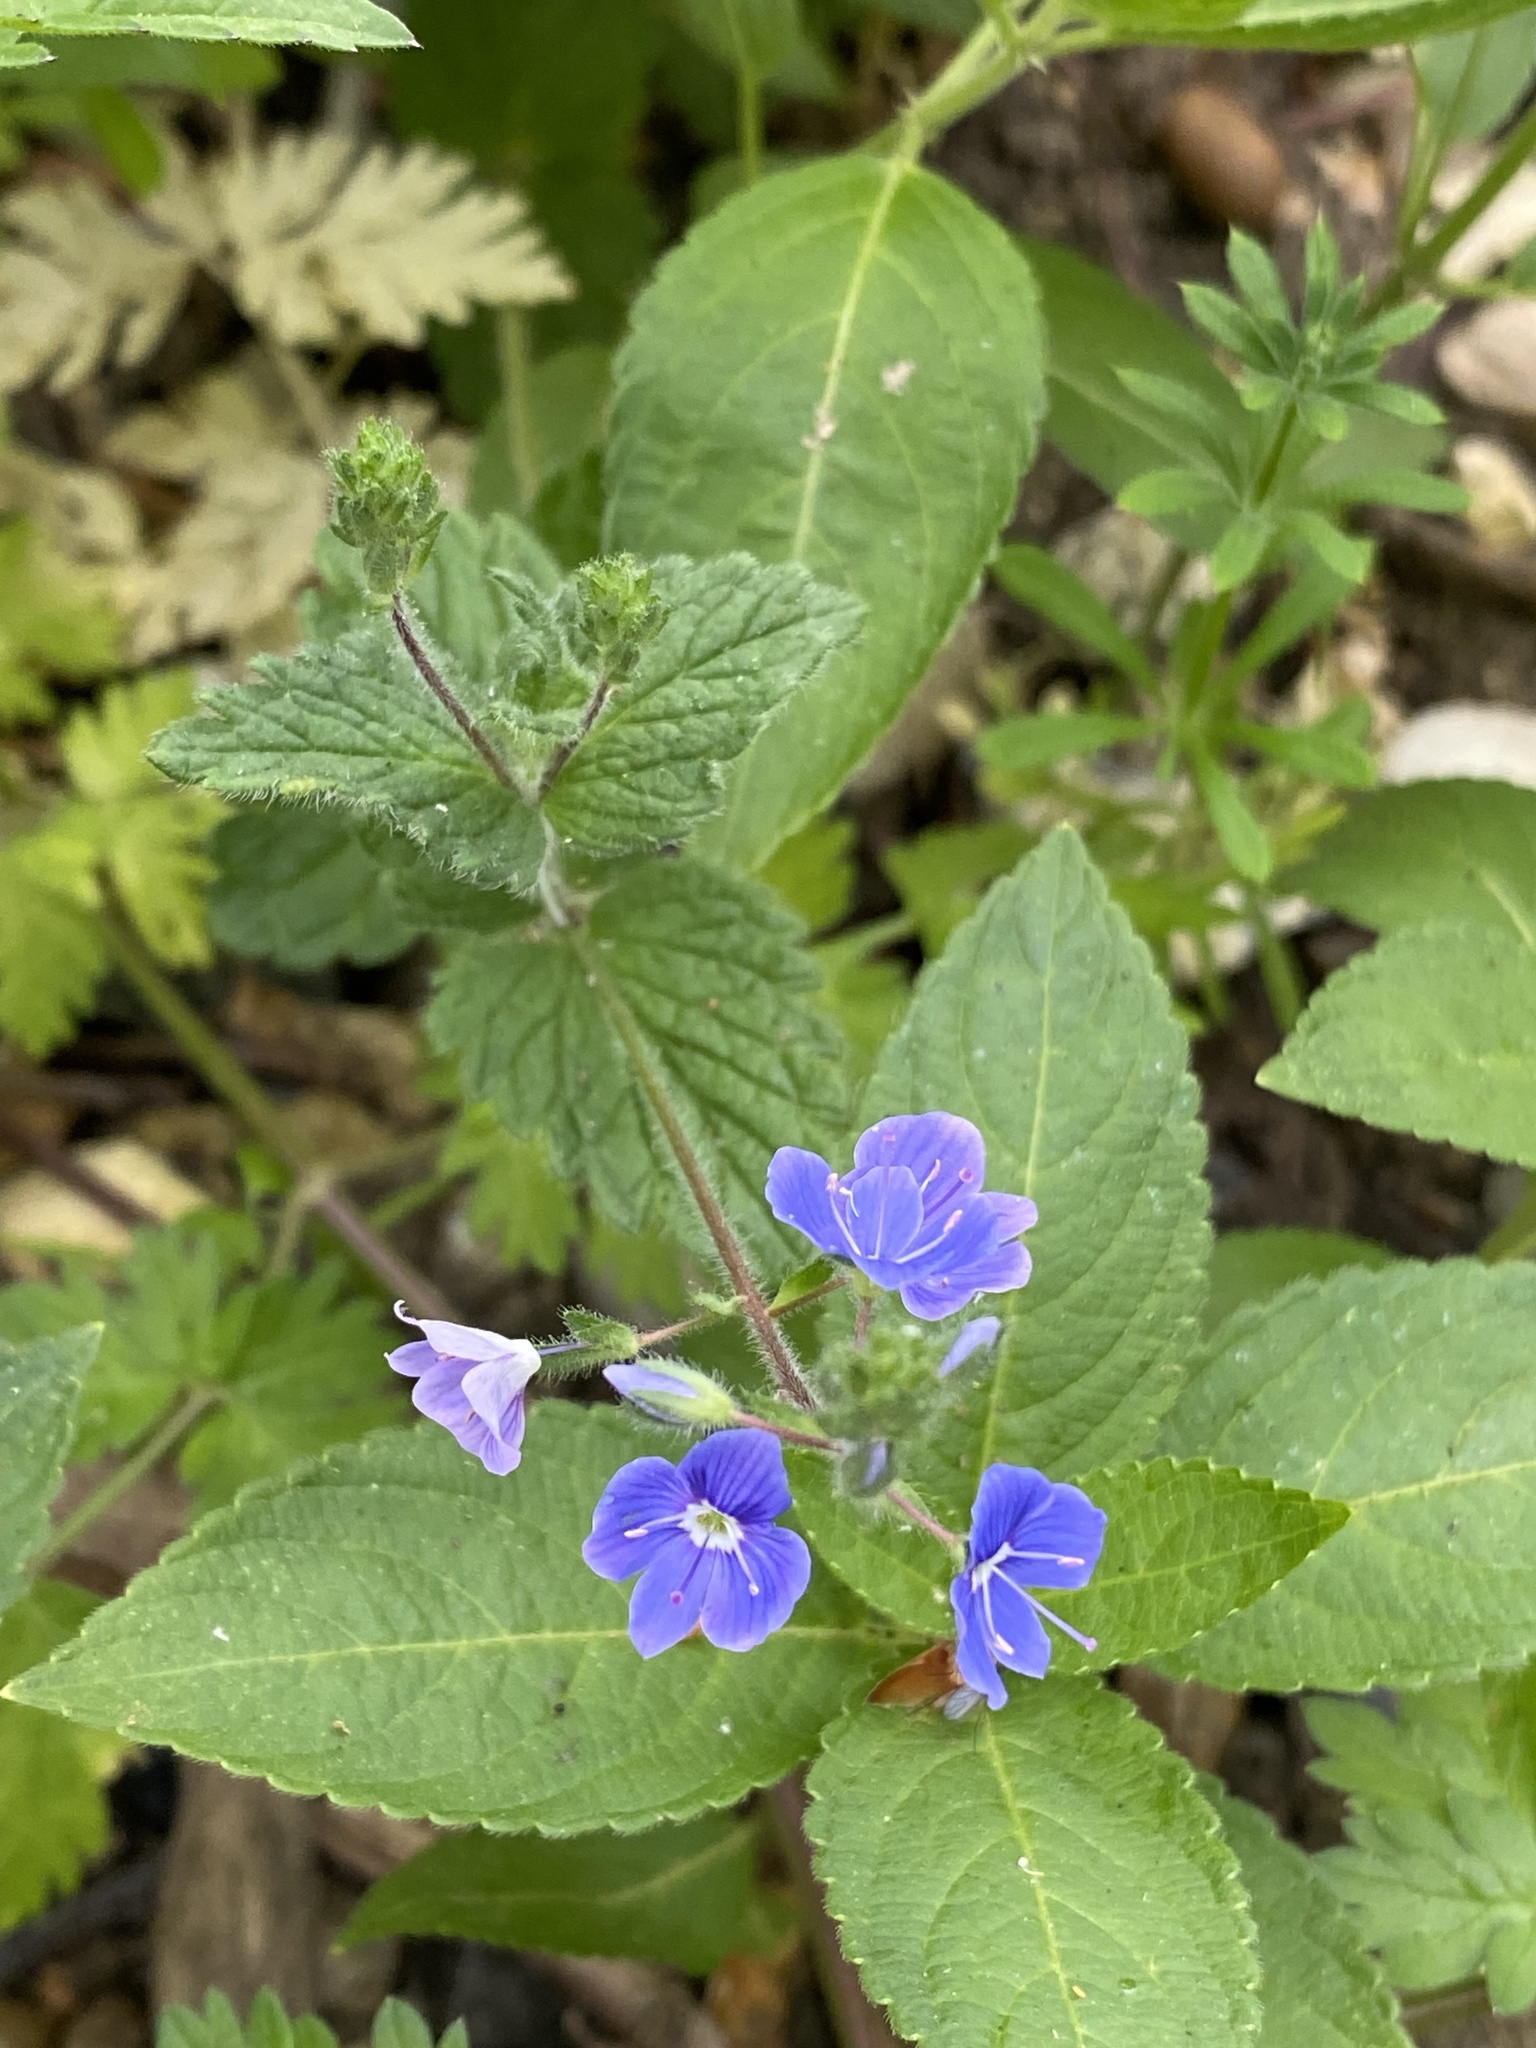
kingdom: Plantae
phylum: Tracheophyta
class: Magnoliopsida
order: Lamiales
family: Plantaginaceae
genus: Veronica
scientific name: Veronica chamaedrys
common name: Germander speedwell
